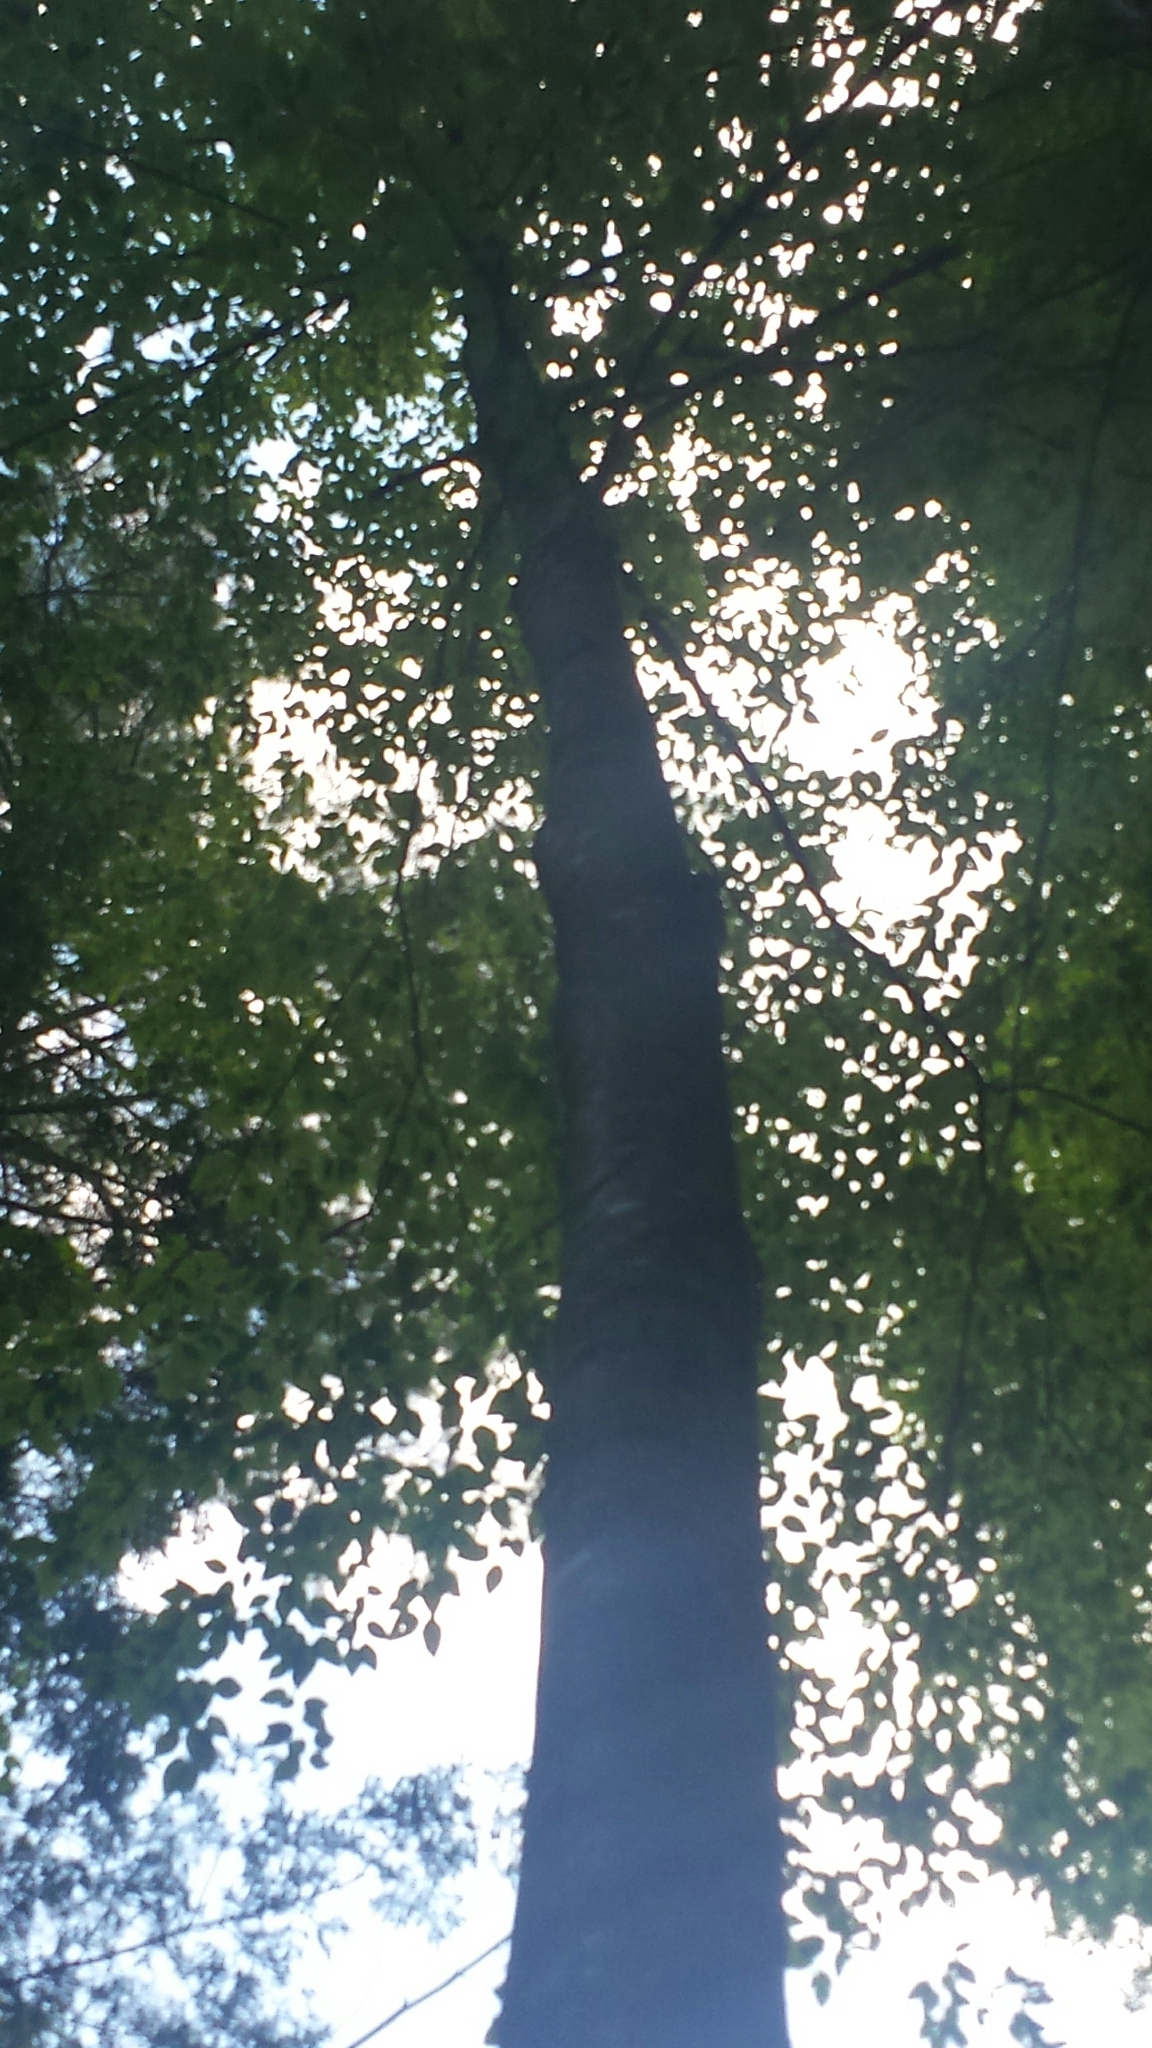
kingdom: Plantae
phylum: Tracheophyta
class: Magnoliopsida
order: Fagales
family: Betulaceae
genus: Betula
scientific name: Betula lenta
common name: Black birch
